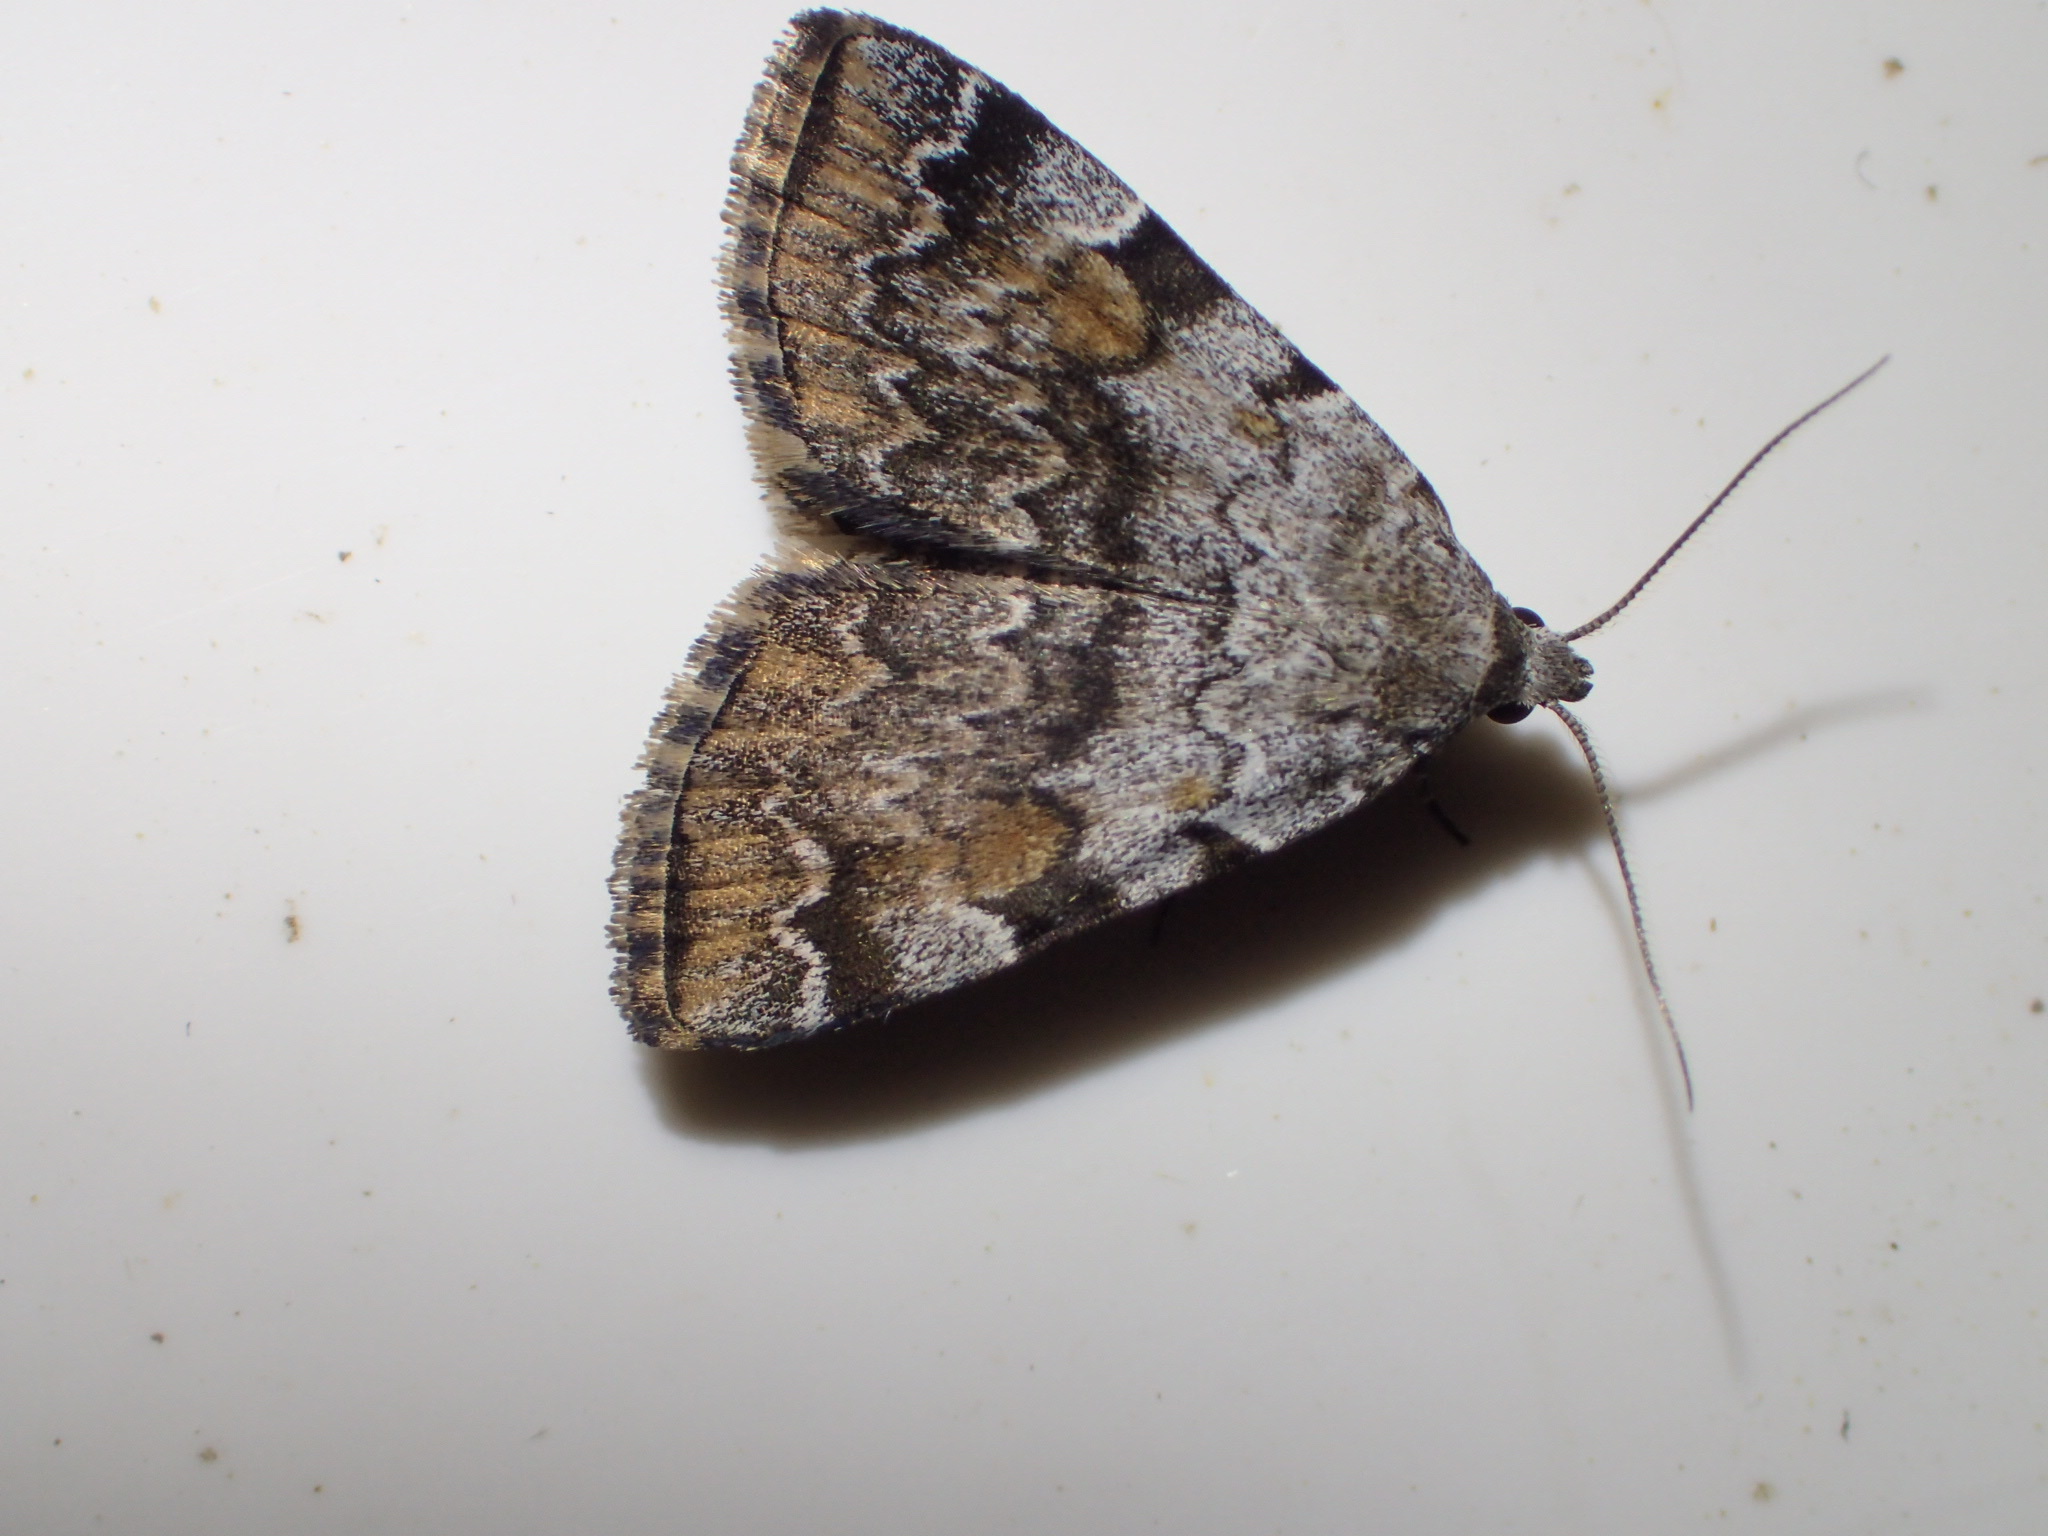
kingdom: Animalia
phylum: Arthropoda
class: Insecta
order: Lepidoptera
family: Erebidae
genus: Idia
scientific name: Idia americalis
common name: American idia moth
